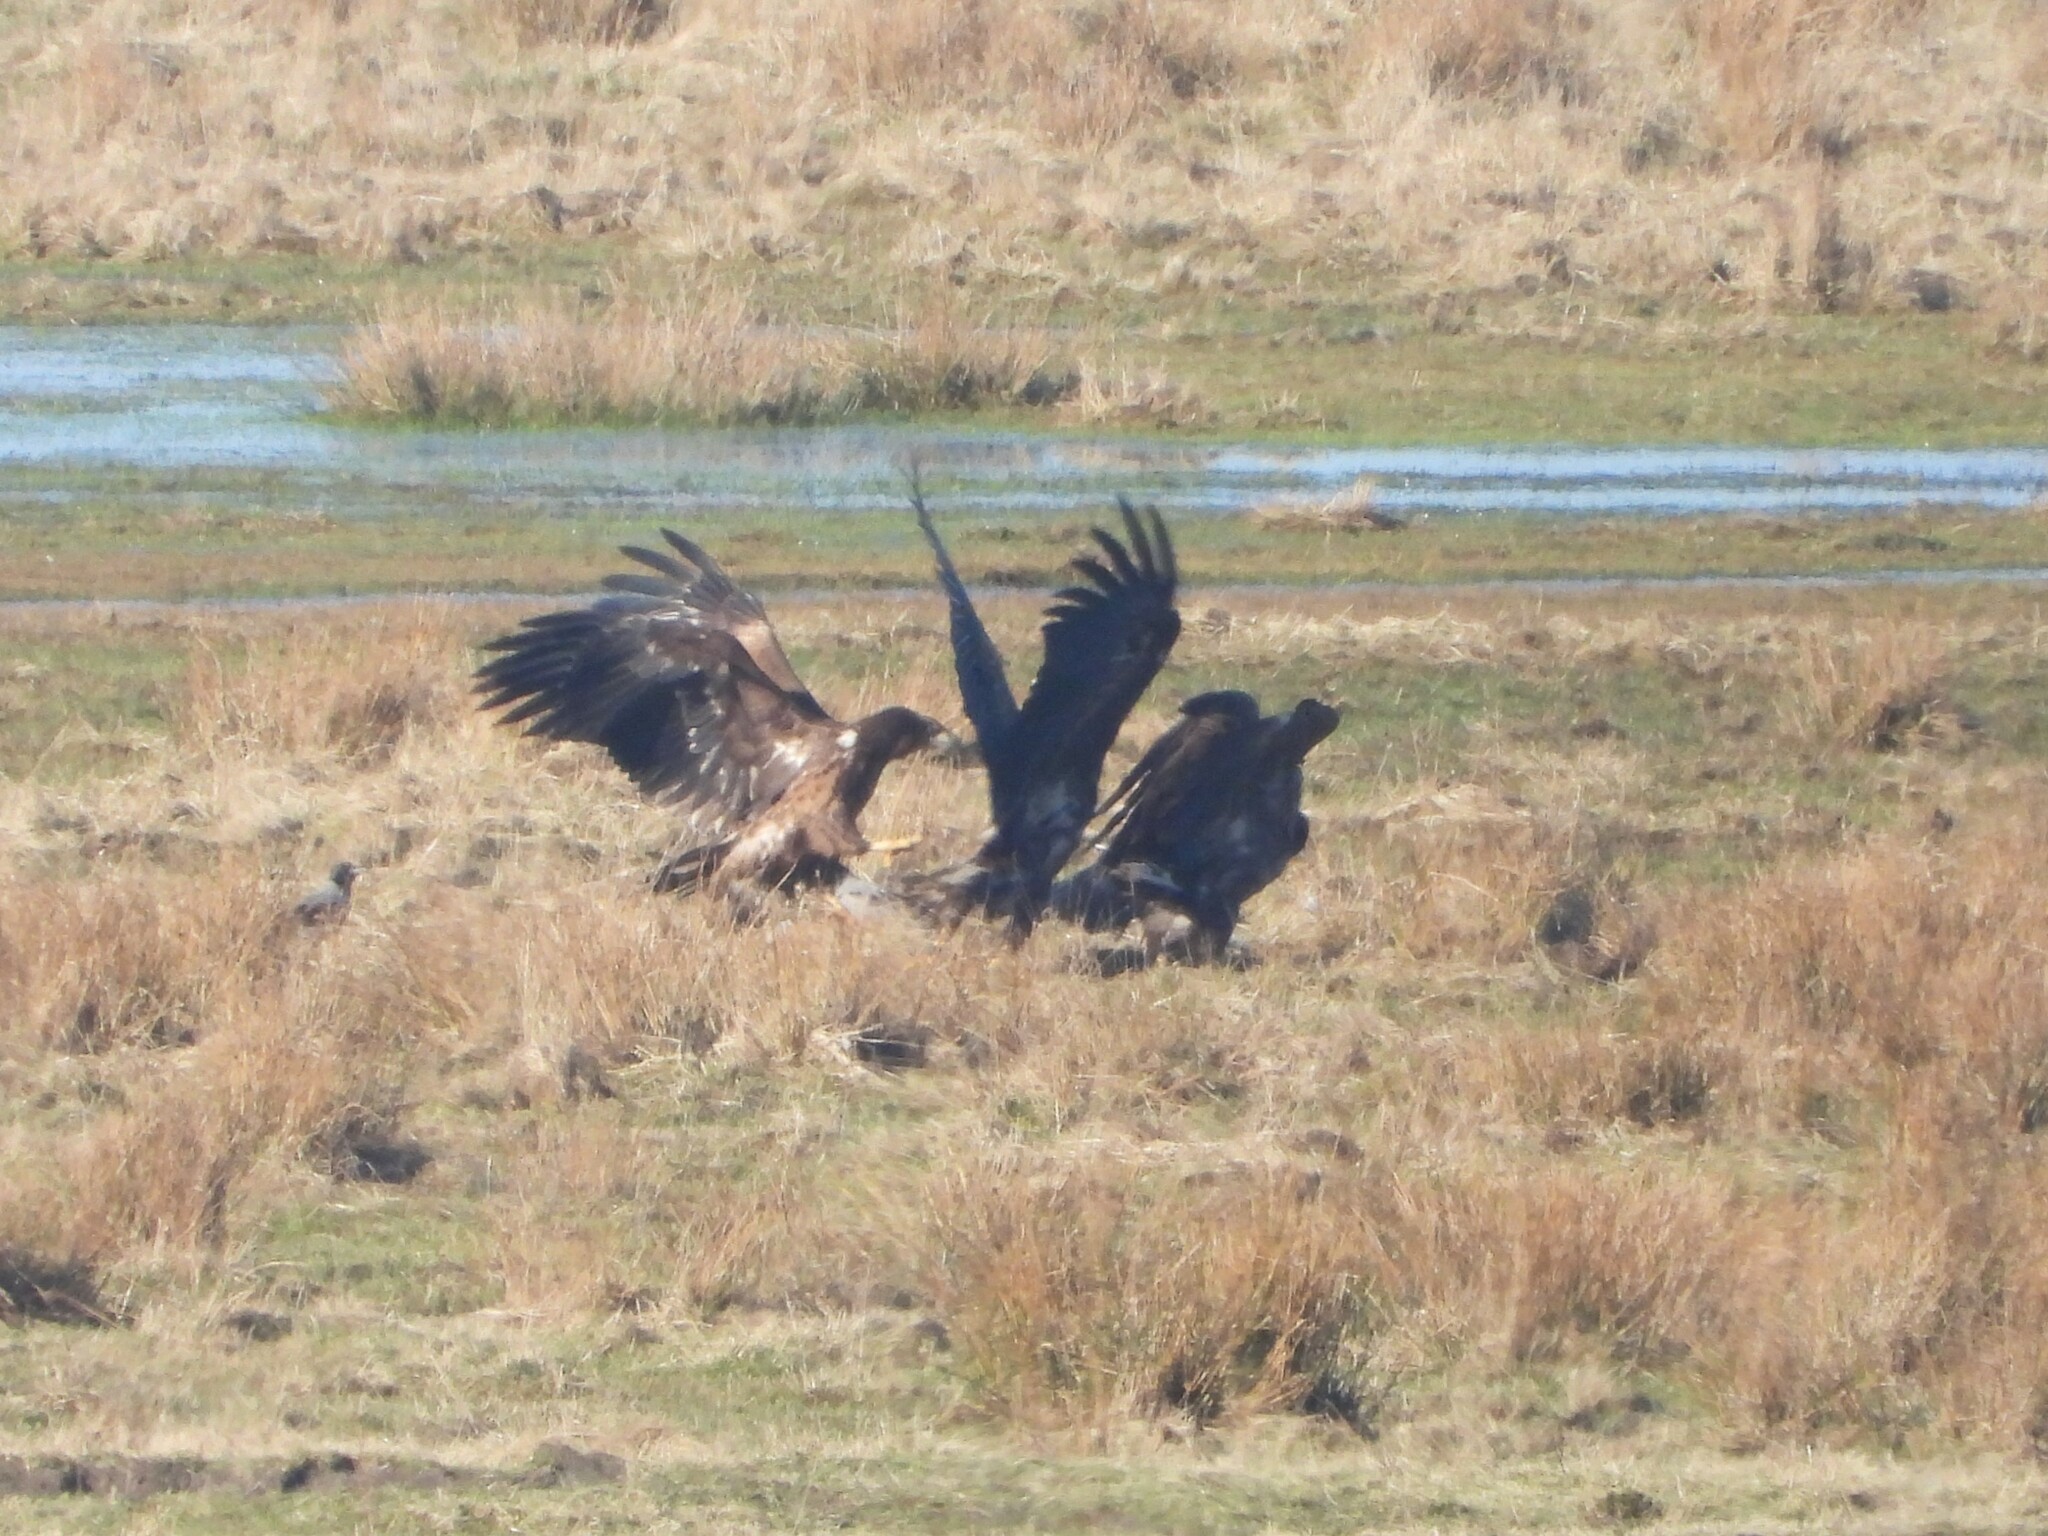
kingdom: Animalia
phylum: Chordata
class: Aves
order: Accipitriformes
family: Accipitridae
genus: Haliaeetus
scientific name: Haliaeetus albicilla
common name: White-tailed eagle
